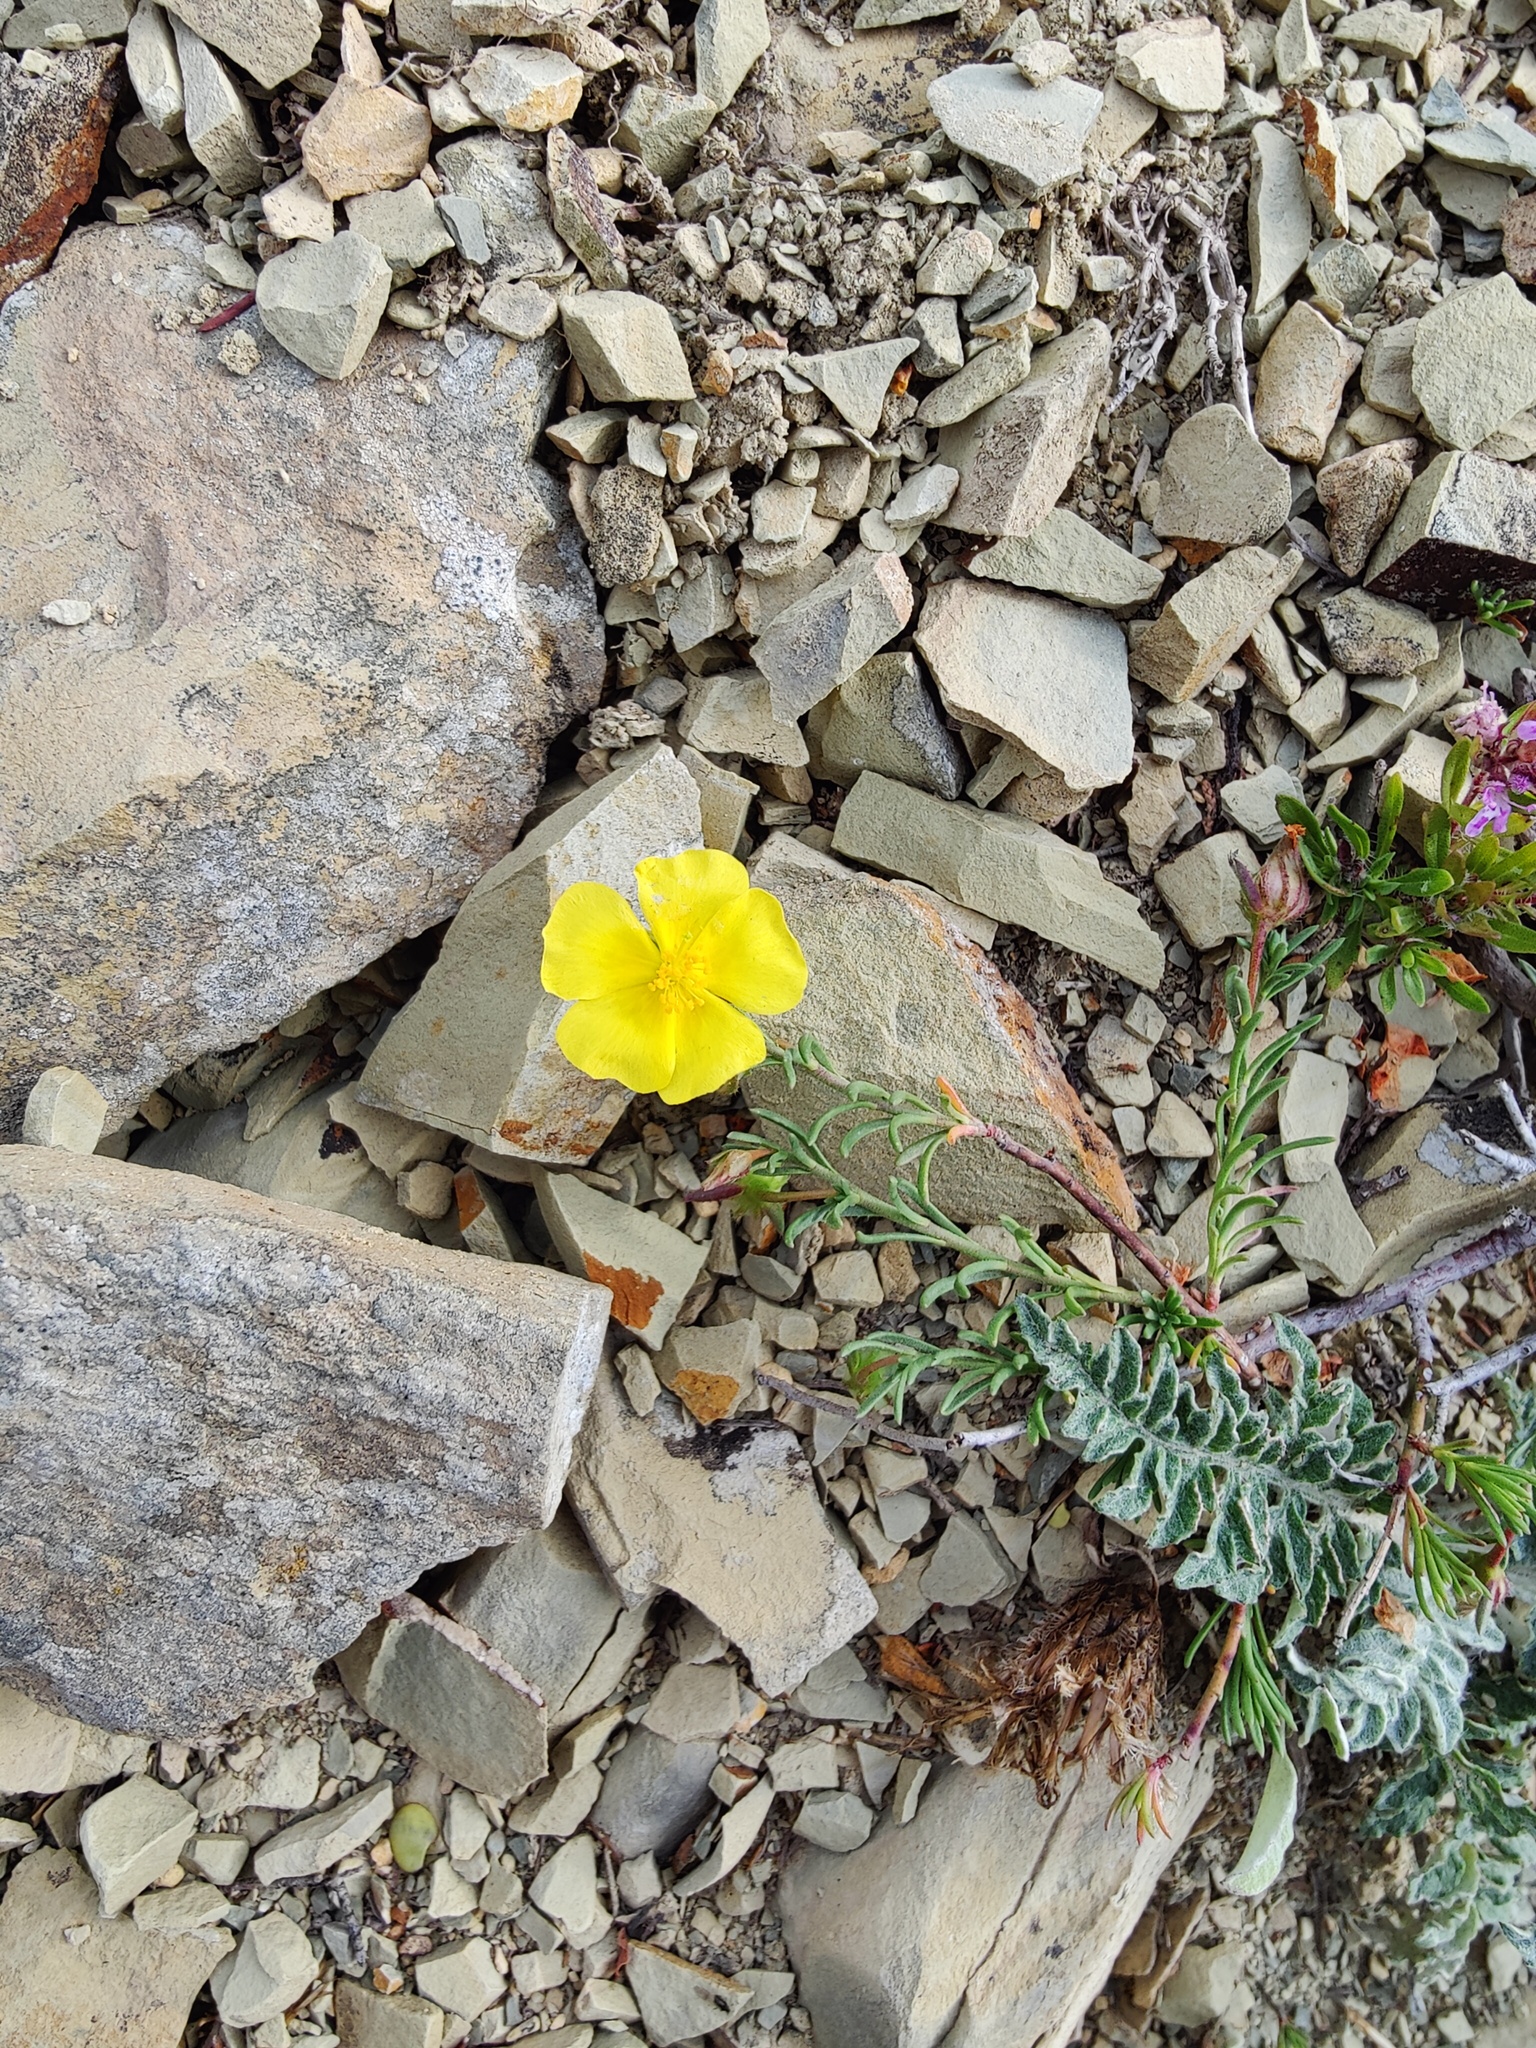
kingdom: Plantae
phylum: Tracheophyta
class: Magnoliopsida
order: Malvales
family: Cistaceae
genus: Fumana
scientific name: Fumana procumbens
